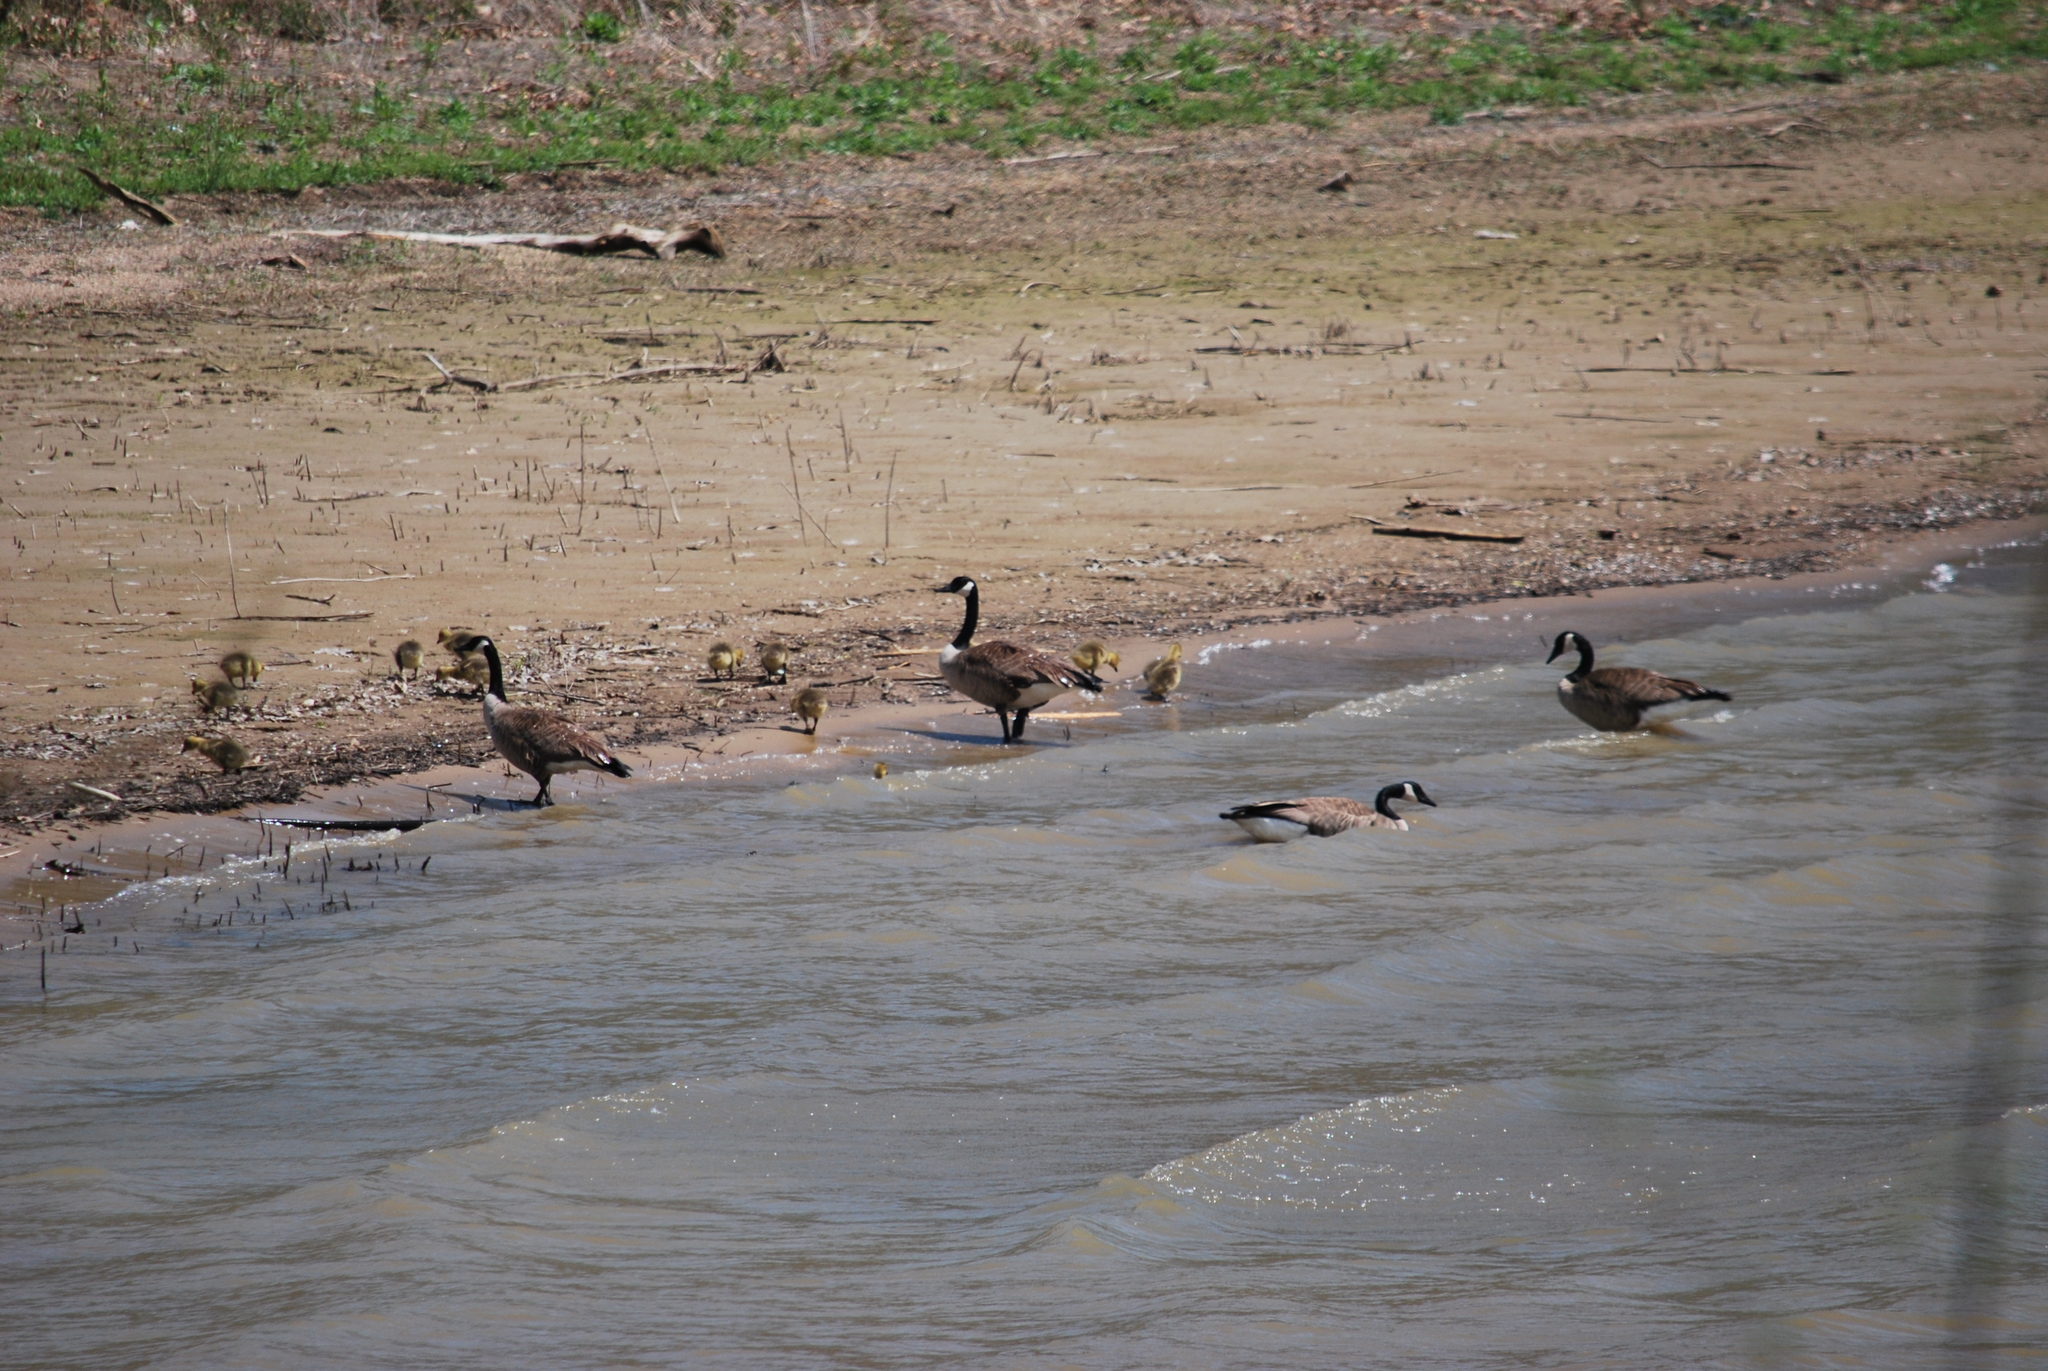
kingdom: Animalia
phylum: Chordata
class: Aves
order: Anseriformes
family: Anatidae
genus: Branta
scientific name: Branta canadensis
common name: Canada goose
